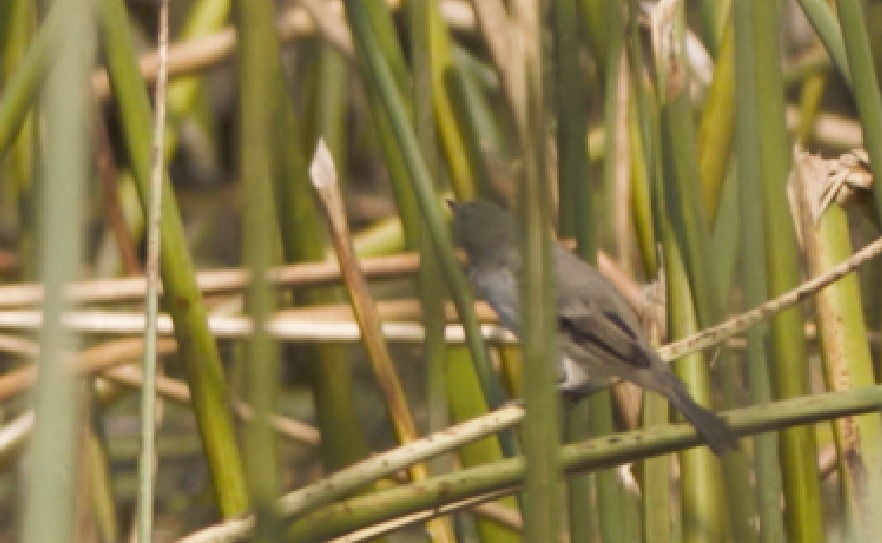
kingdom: Animalia
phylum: Chordata
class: Aves
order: Passeriformes
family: Tyrannidae
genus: Serpophaga
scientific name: Serpophaga nigricans
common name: Sooty tyrannulet
